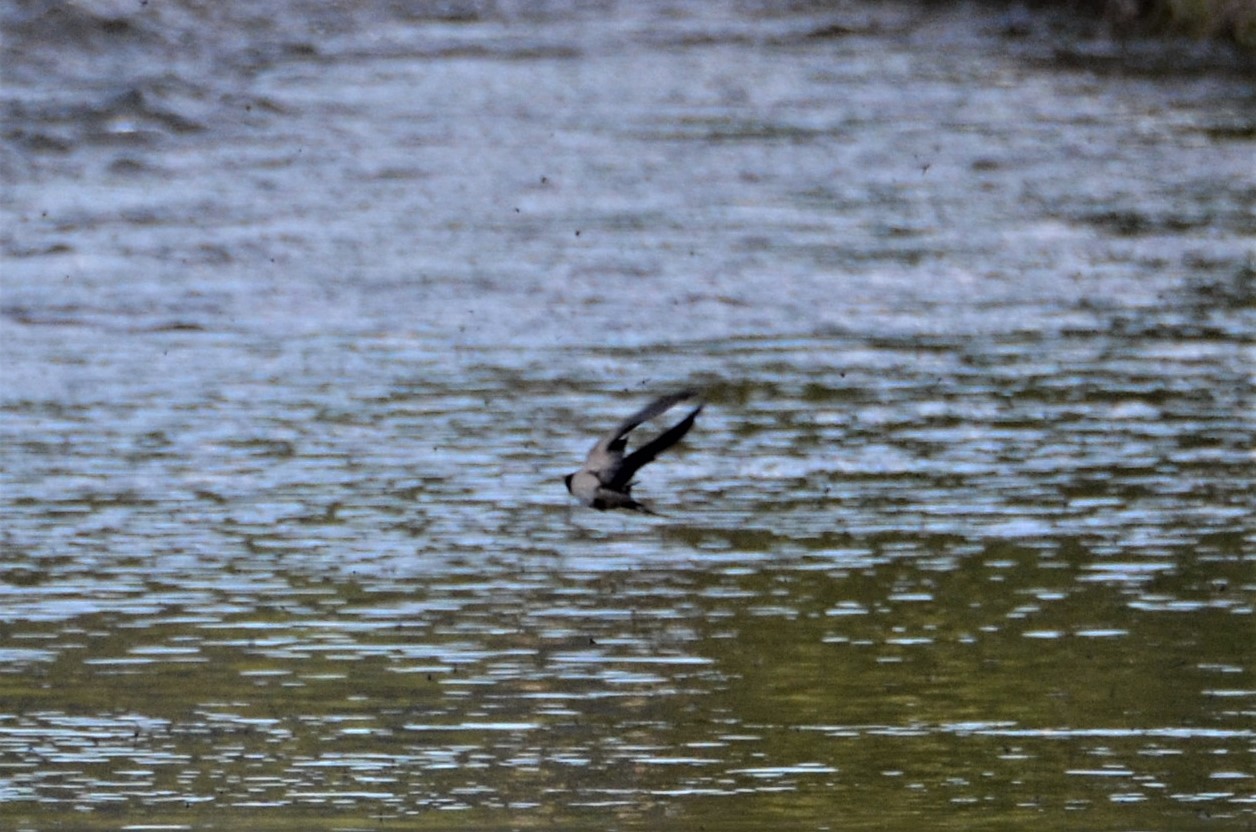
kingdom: Animalia
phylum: Chordata
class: Aves
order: Passeriformes
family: Hirundinidae
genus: Hirundo
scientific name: Hirundo rustica
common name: Barn swallow
